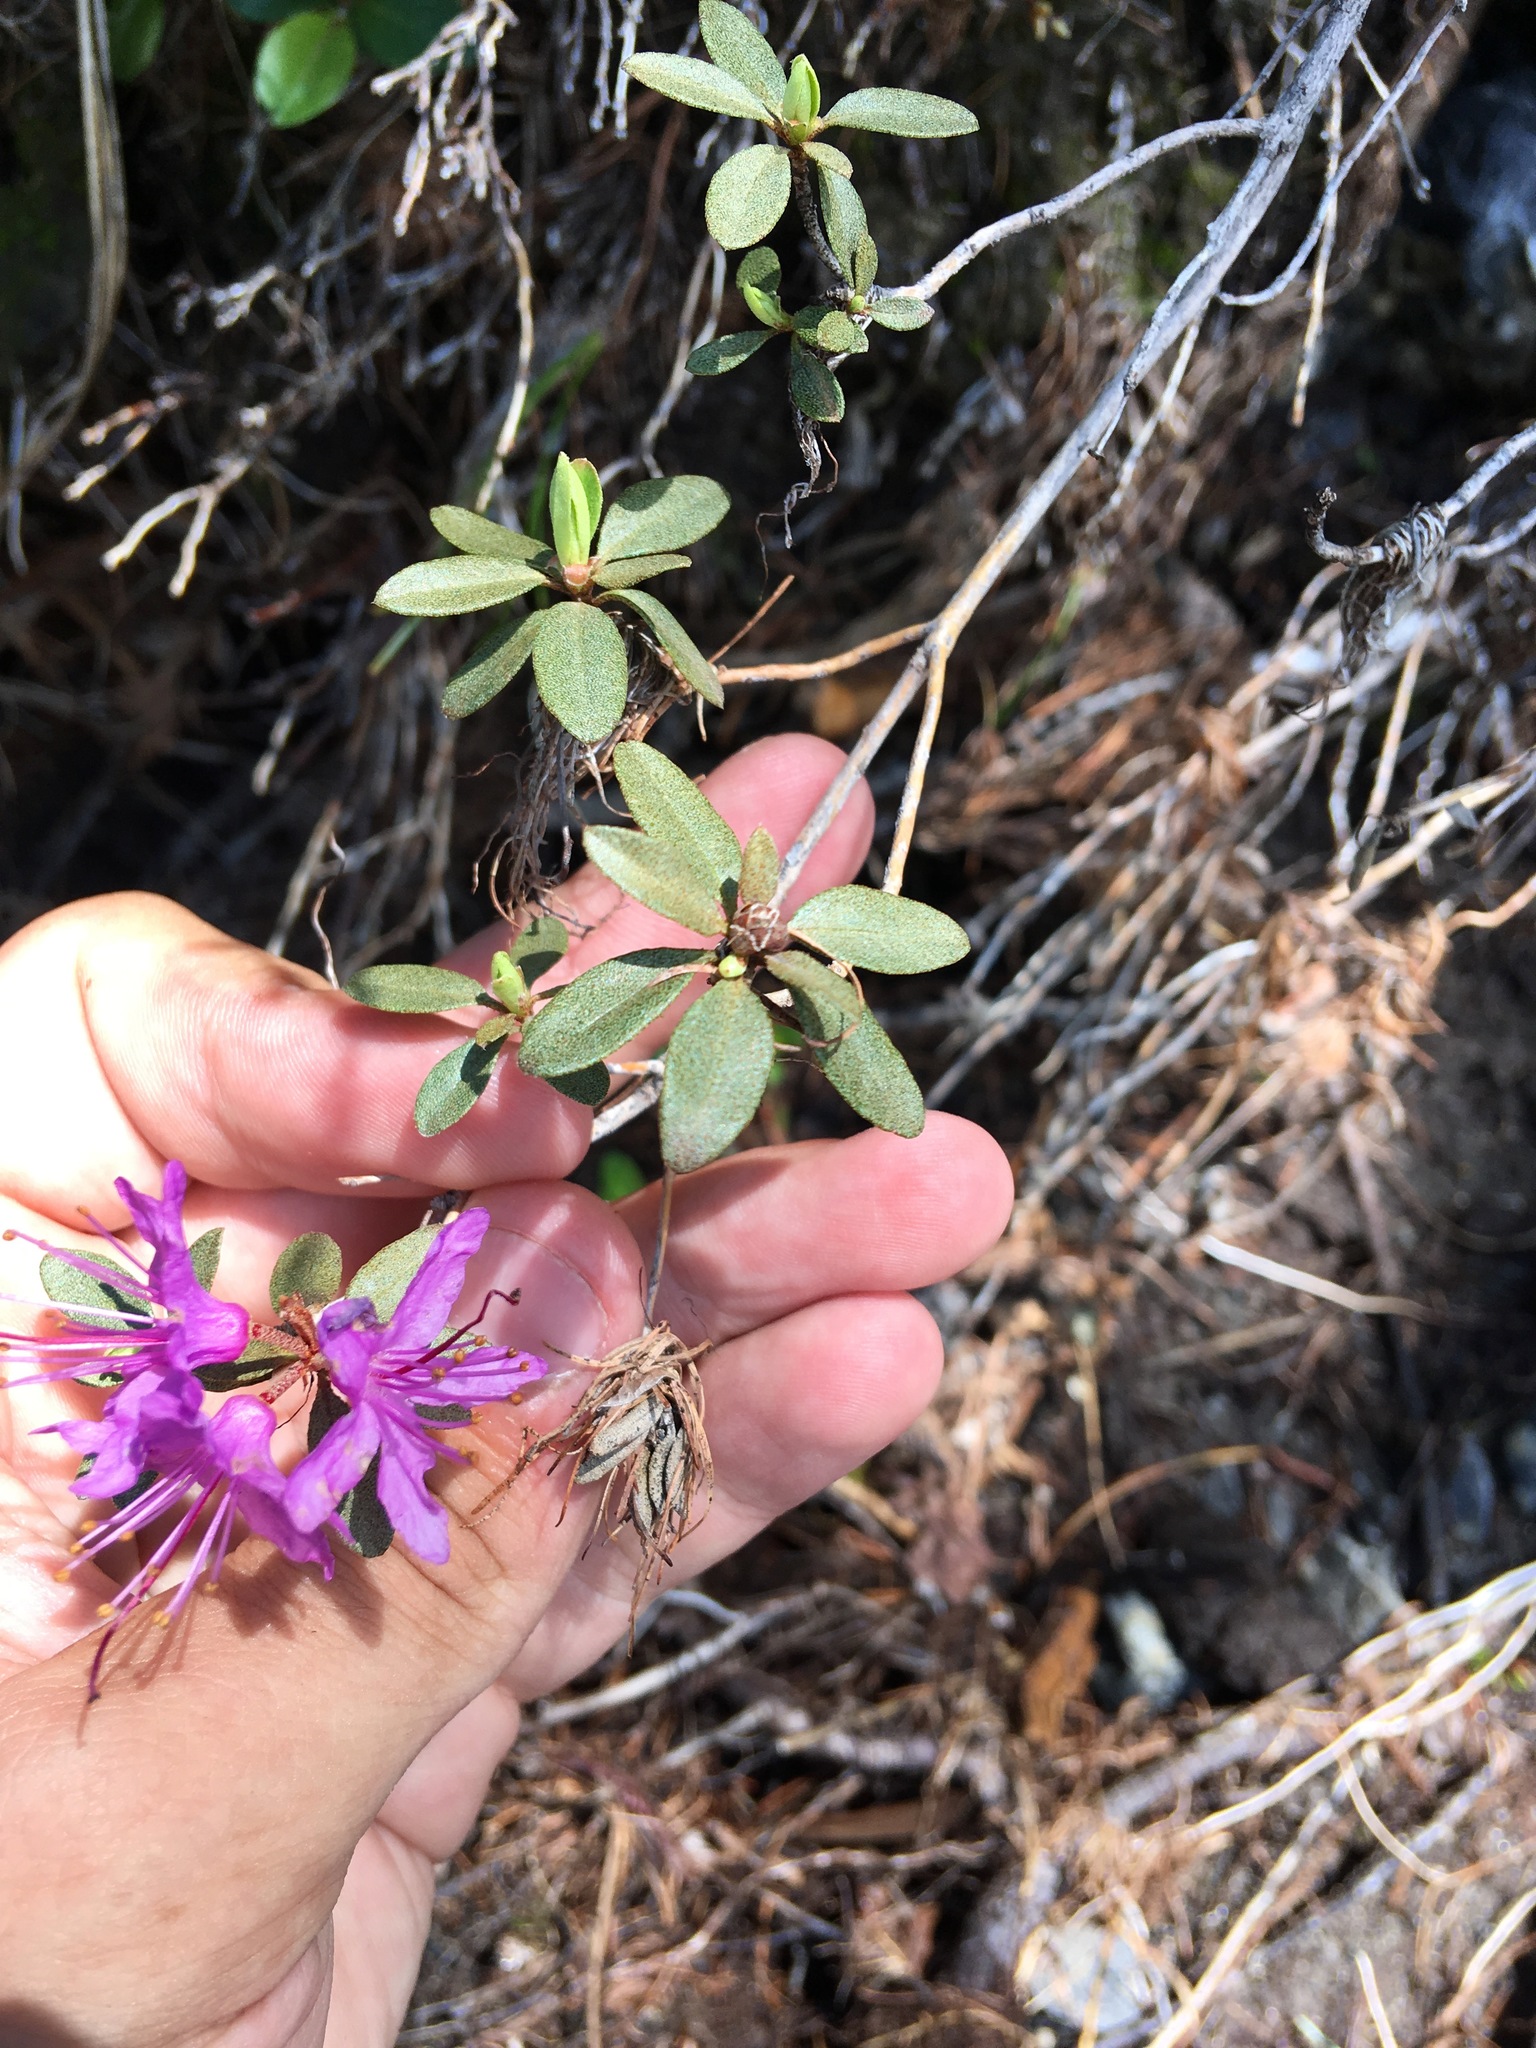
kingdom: Plantae
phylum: Tracheophyta
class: Magnoliopsida
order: Ericales
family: Ericaceae
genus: Rhododendron
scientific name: Rhododendron parvifolium
